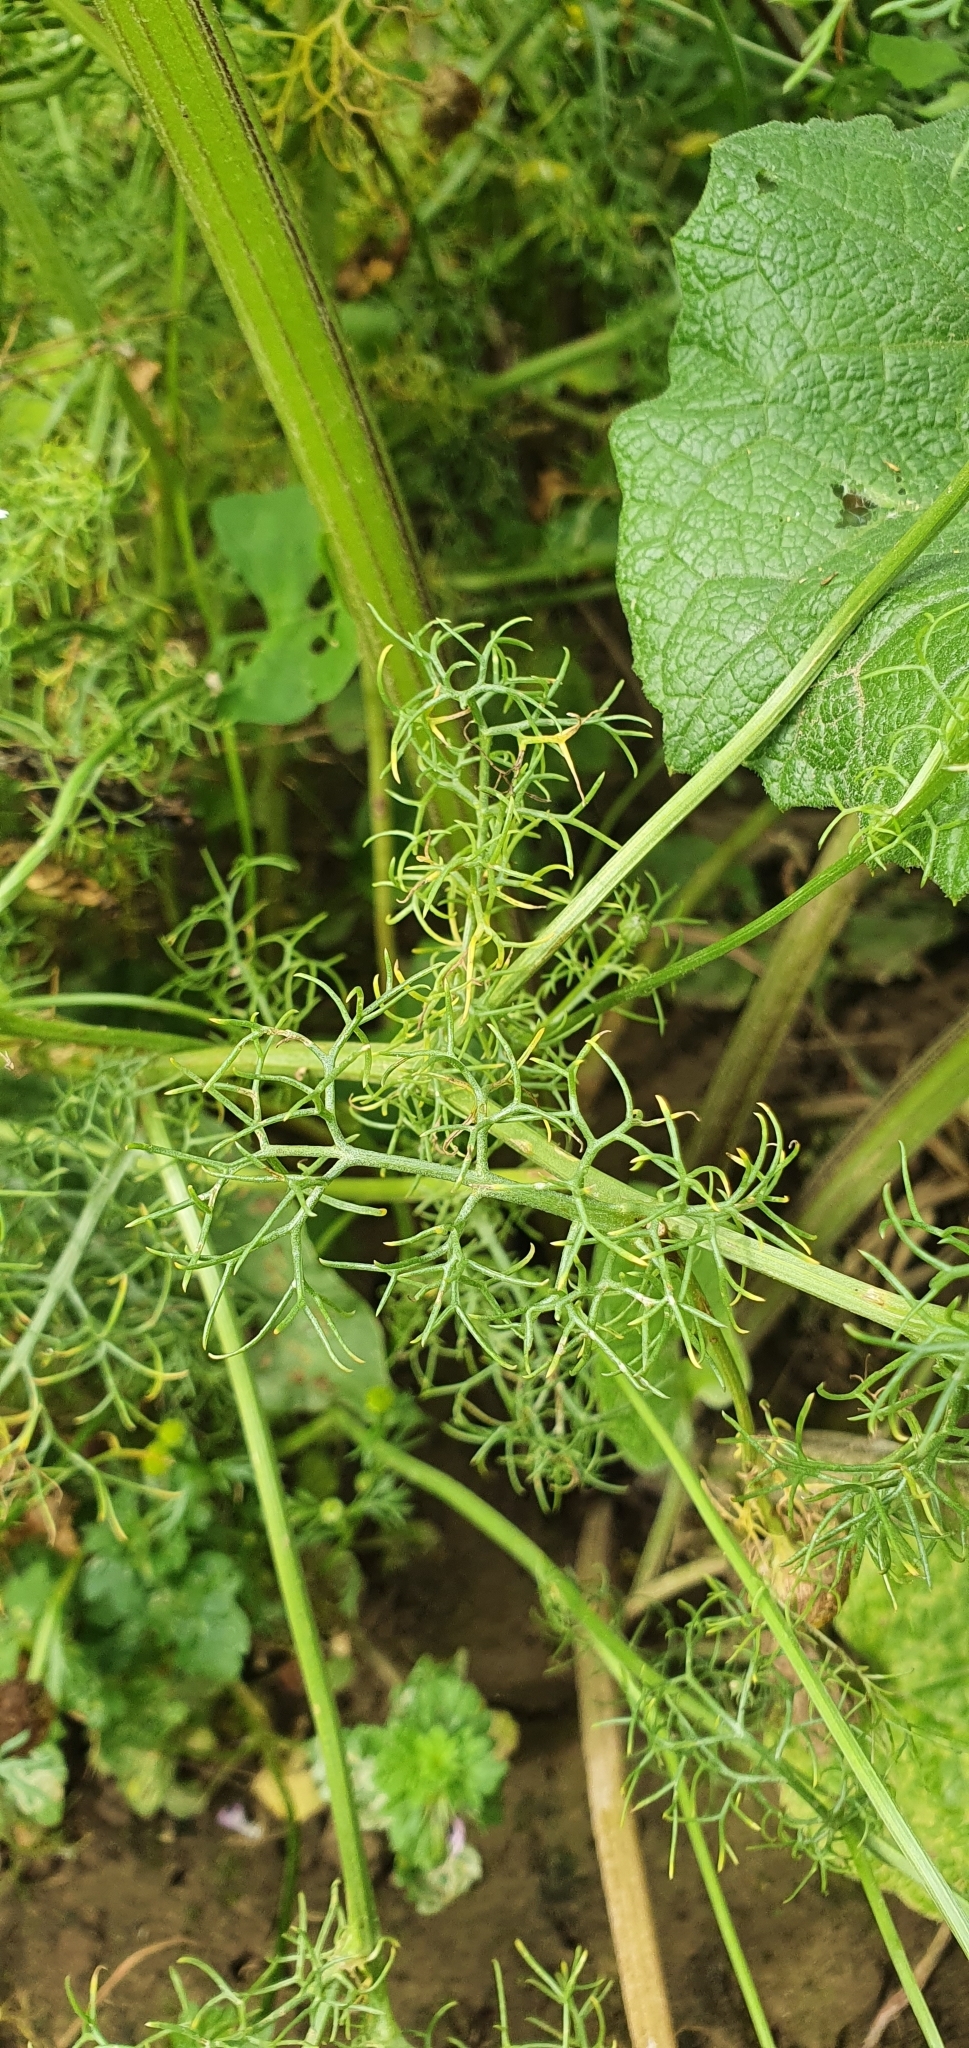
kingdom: Plantae
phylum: Tracheophyta
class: Magnoliopsida
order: Asterales
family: Asteraceae
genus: Tripleurospermum
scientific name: Tripleurospermum inodorum
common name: Scentless mayweed
